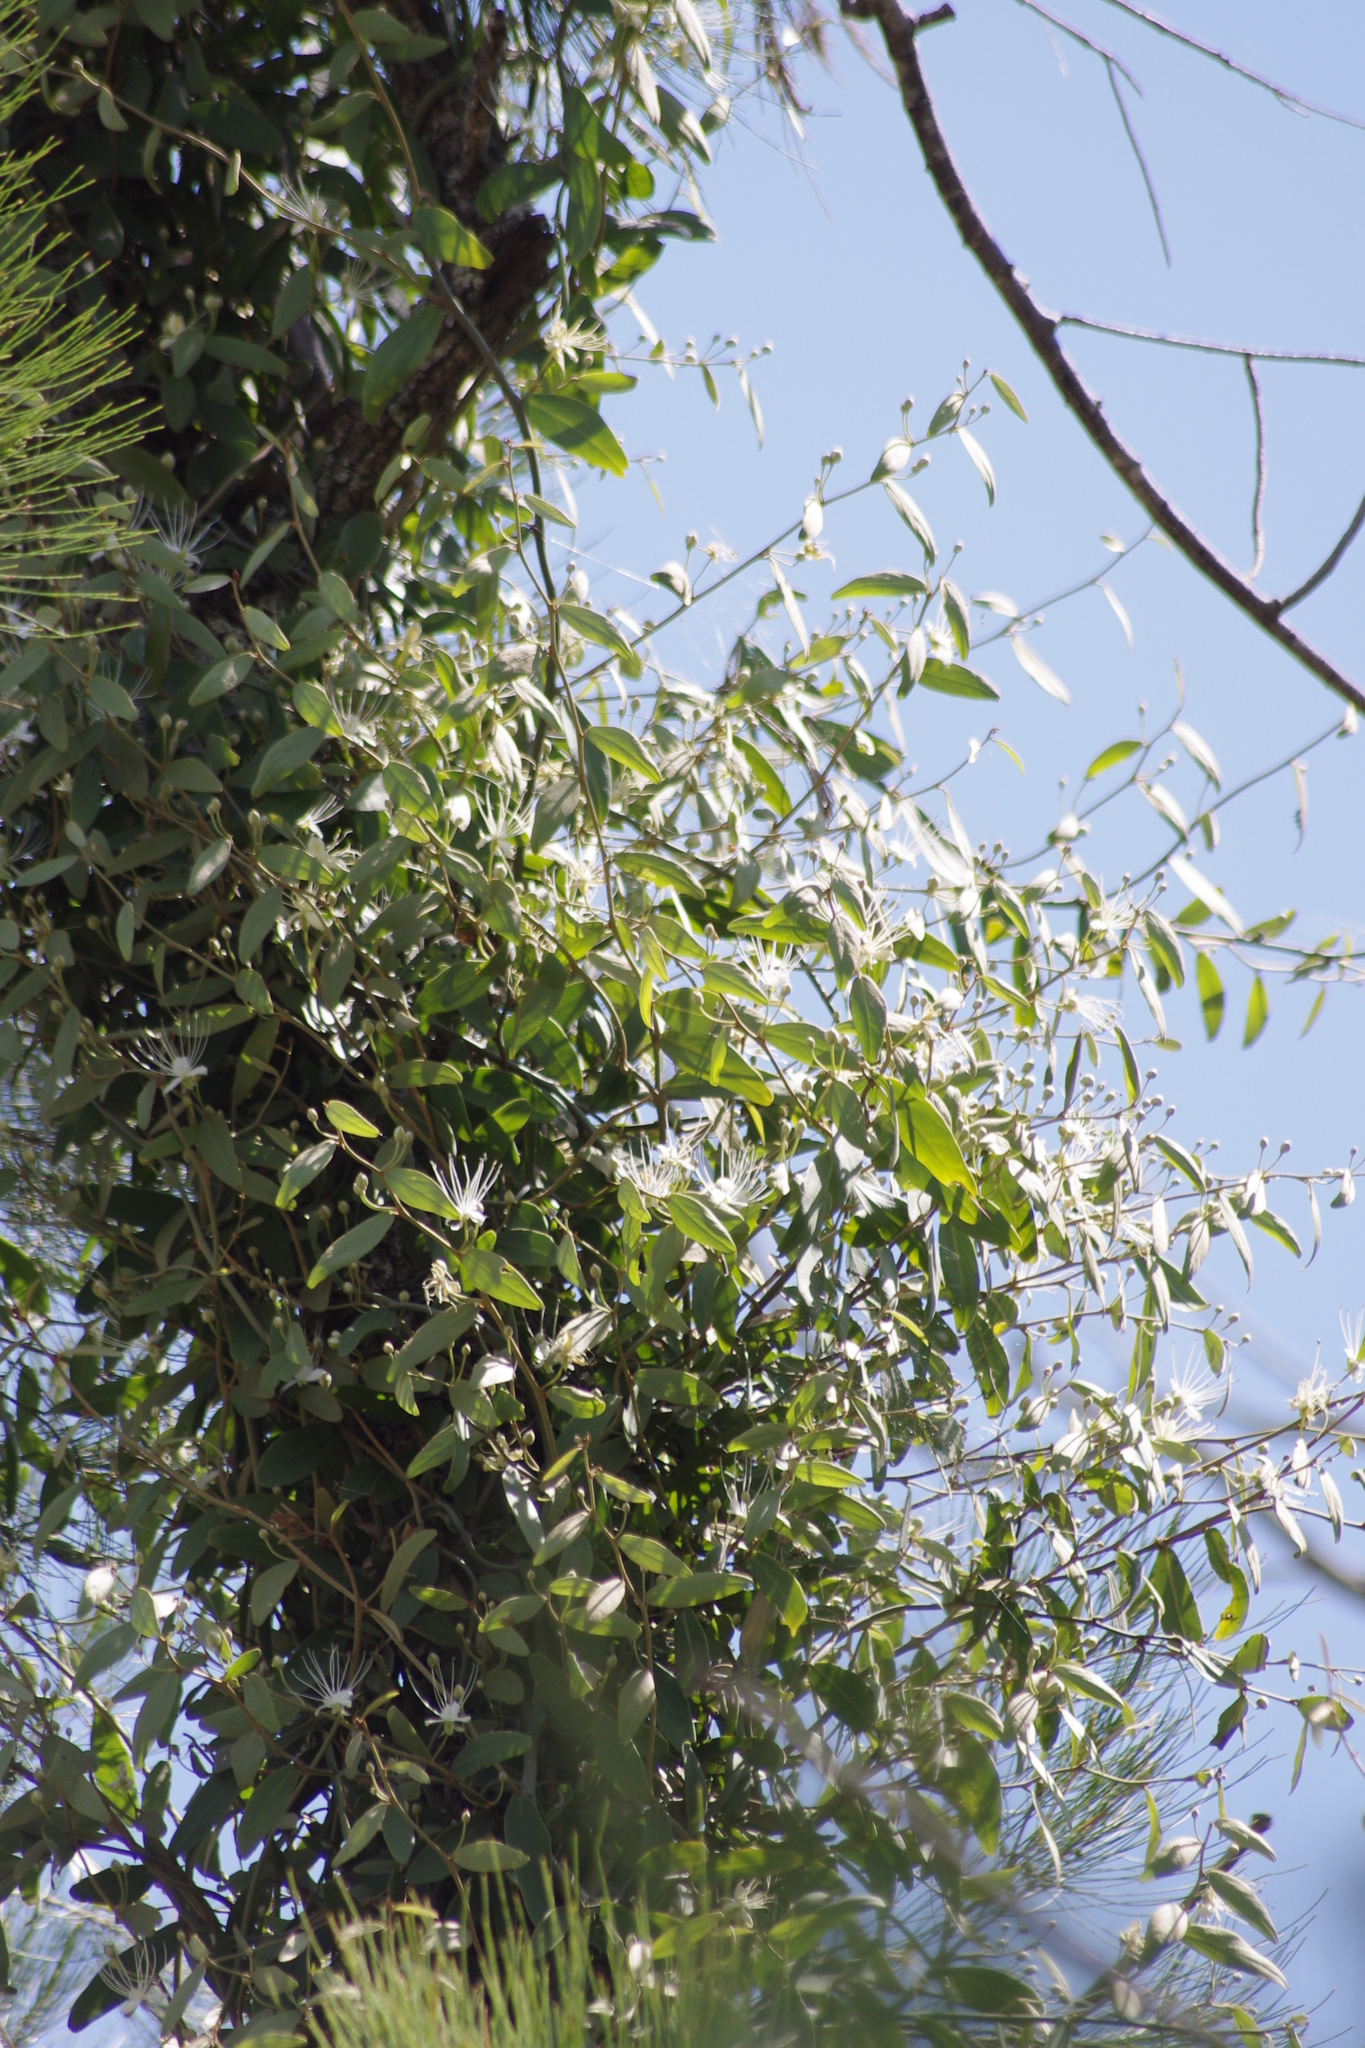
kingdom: Plantae
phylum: Tracheophyta
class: Magnoliopsida
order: Brassicales
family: Capparaceae
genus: Capparis
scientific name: Capparis lasiantha
